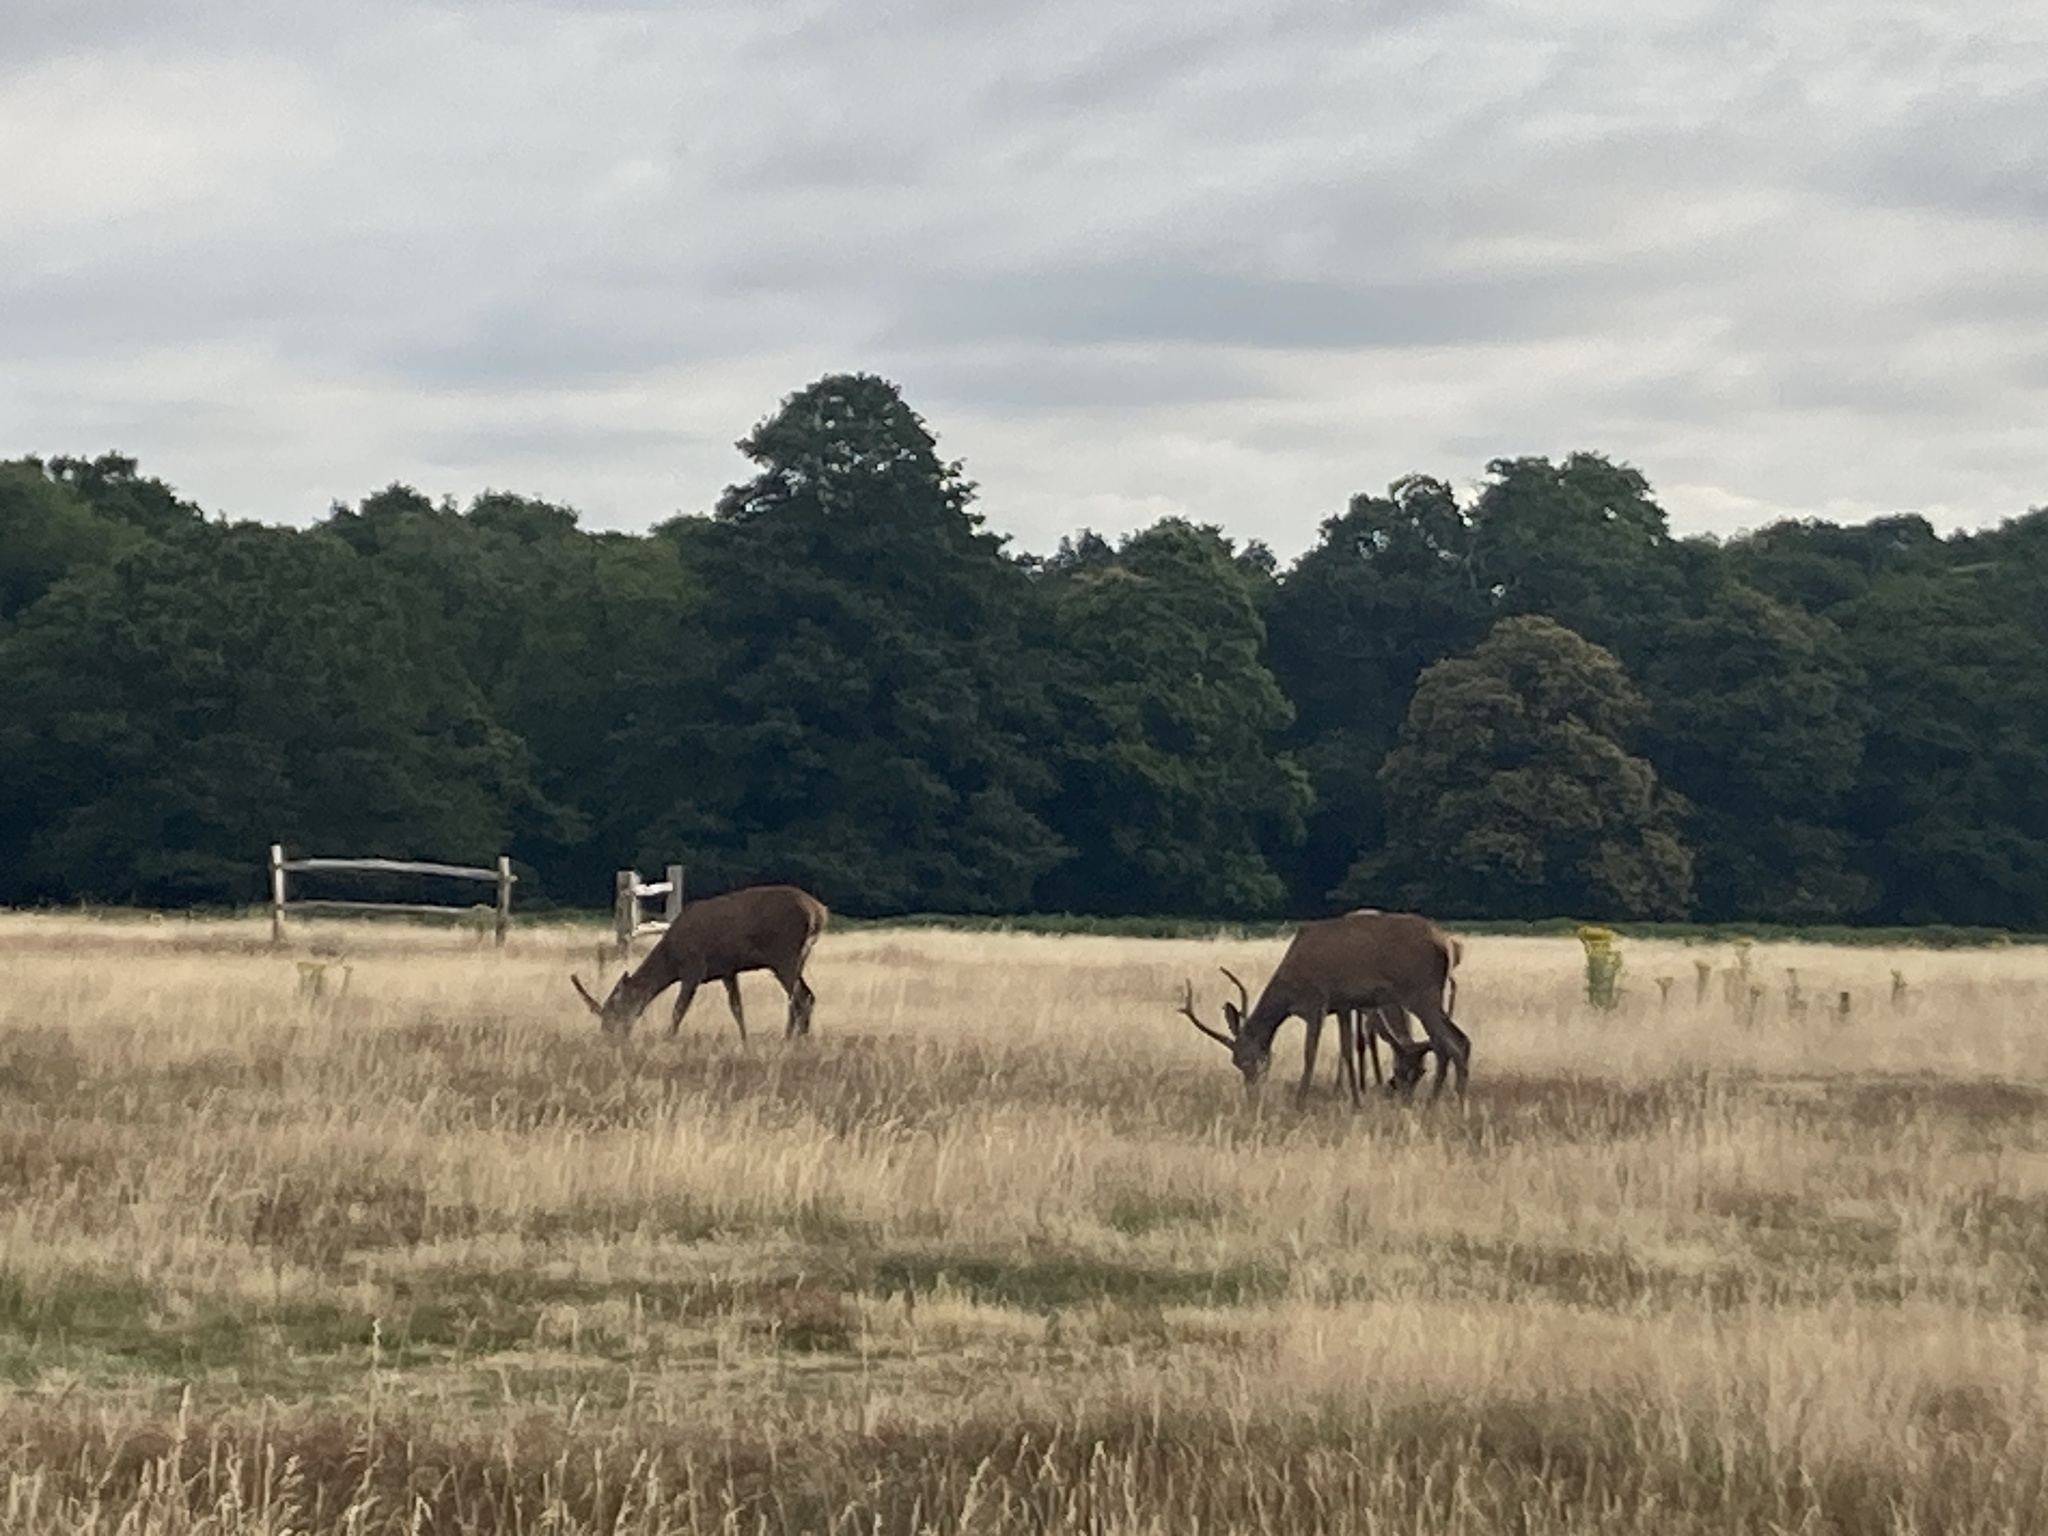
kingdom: Animalia
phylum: Chordata
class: Mammalia
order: Artiodactyla
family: Cervidae
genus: Cervus
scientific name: Cervus elaphus
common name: Red deer
